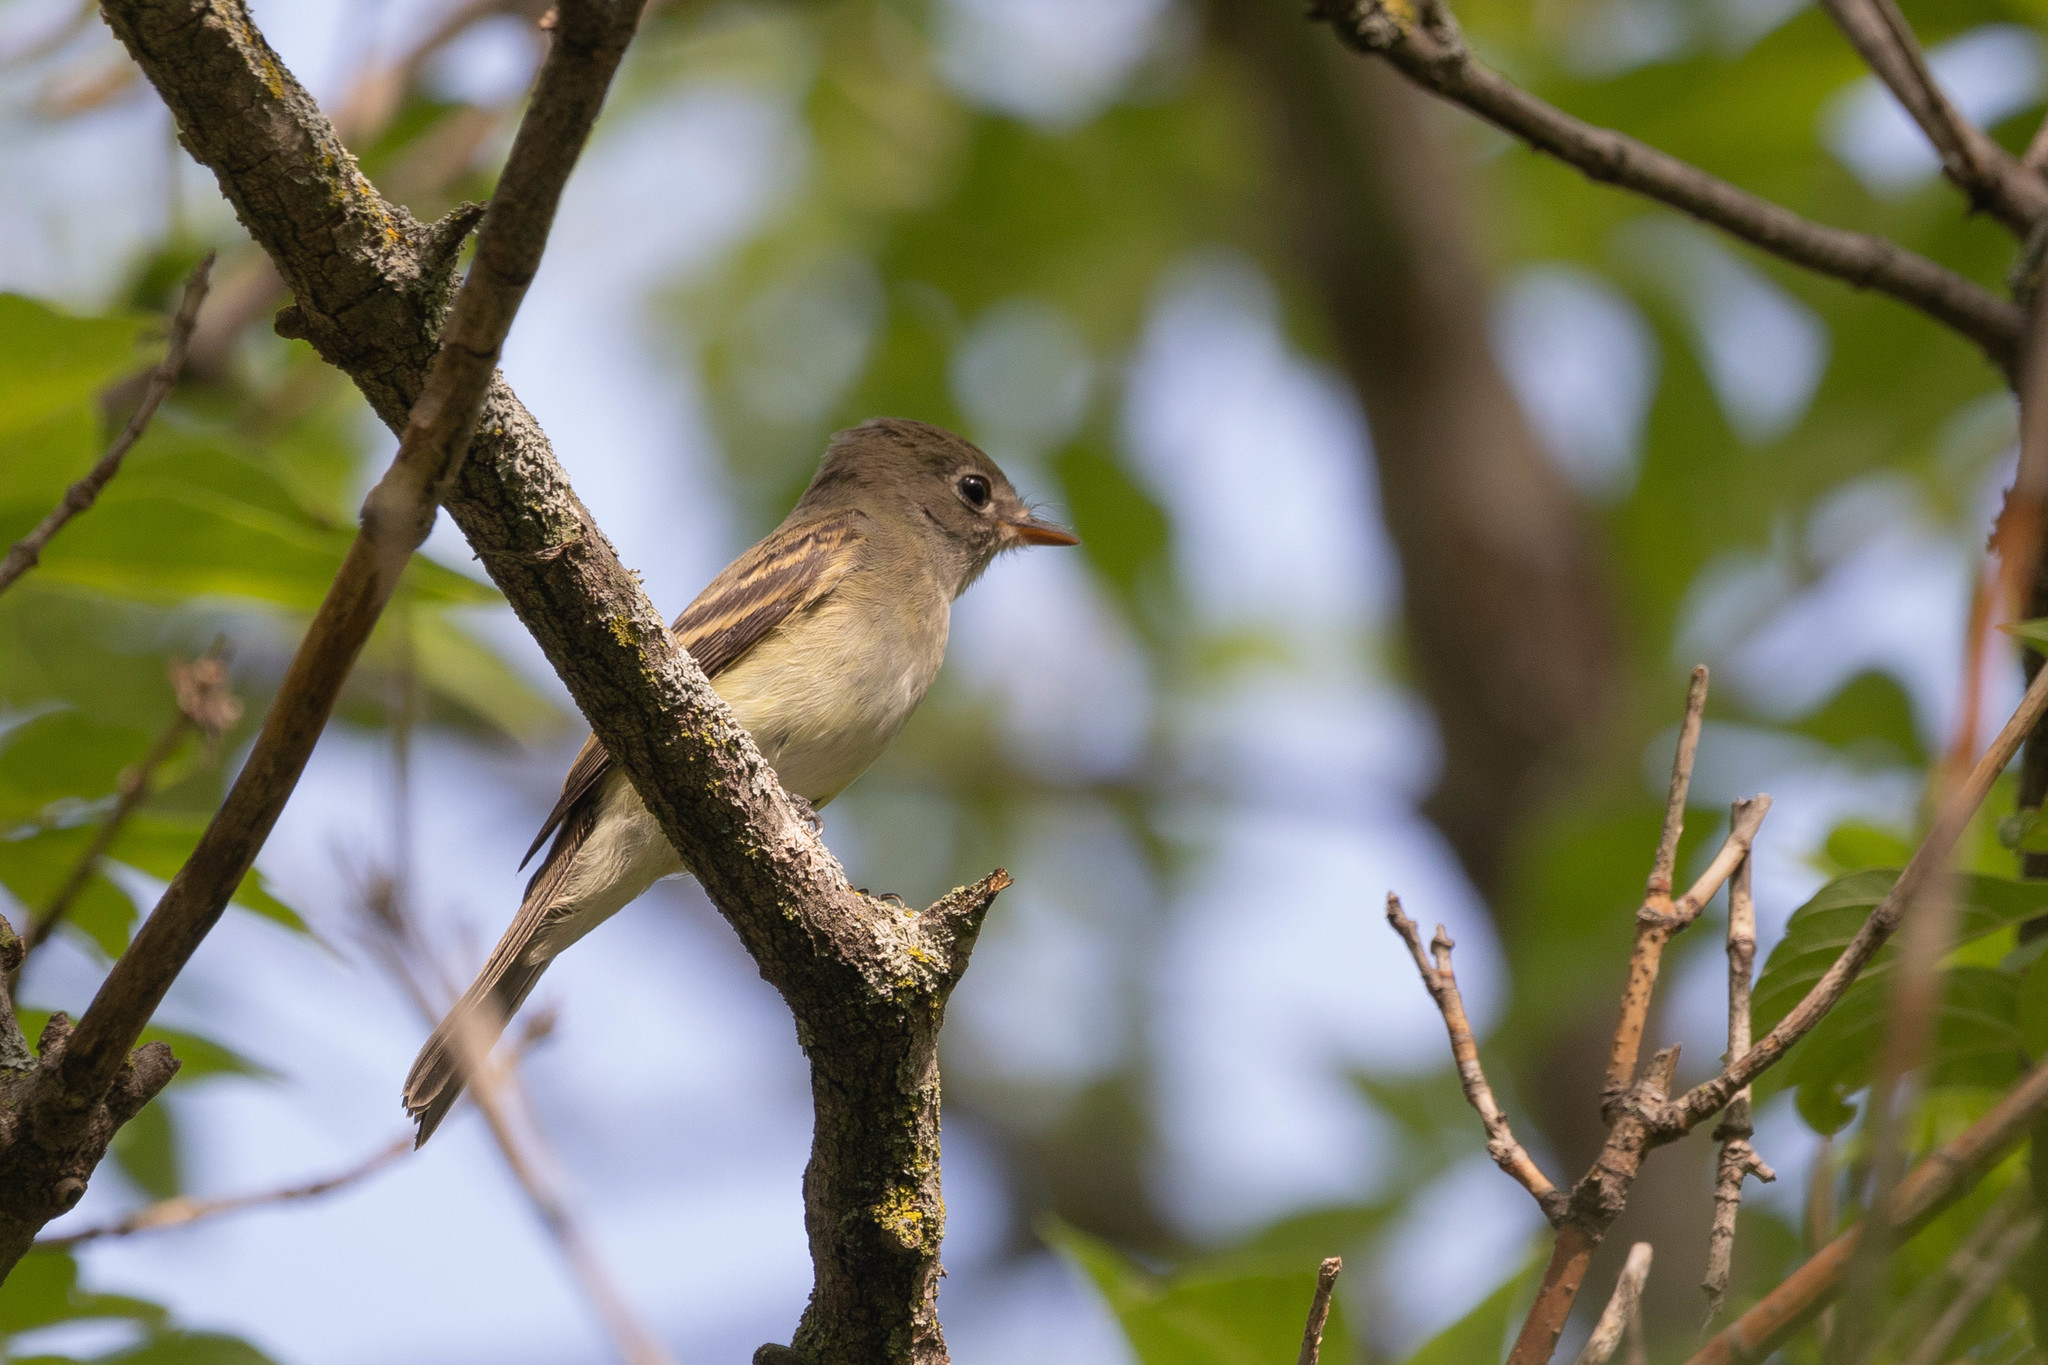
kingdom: Animalia
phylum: Chordata
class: Aves
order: Passeriformes
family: Tyrannidae
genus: Contopus
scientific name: Contopus virens
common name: Eastern wood-pewee
